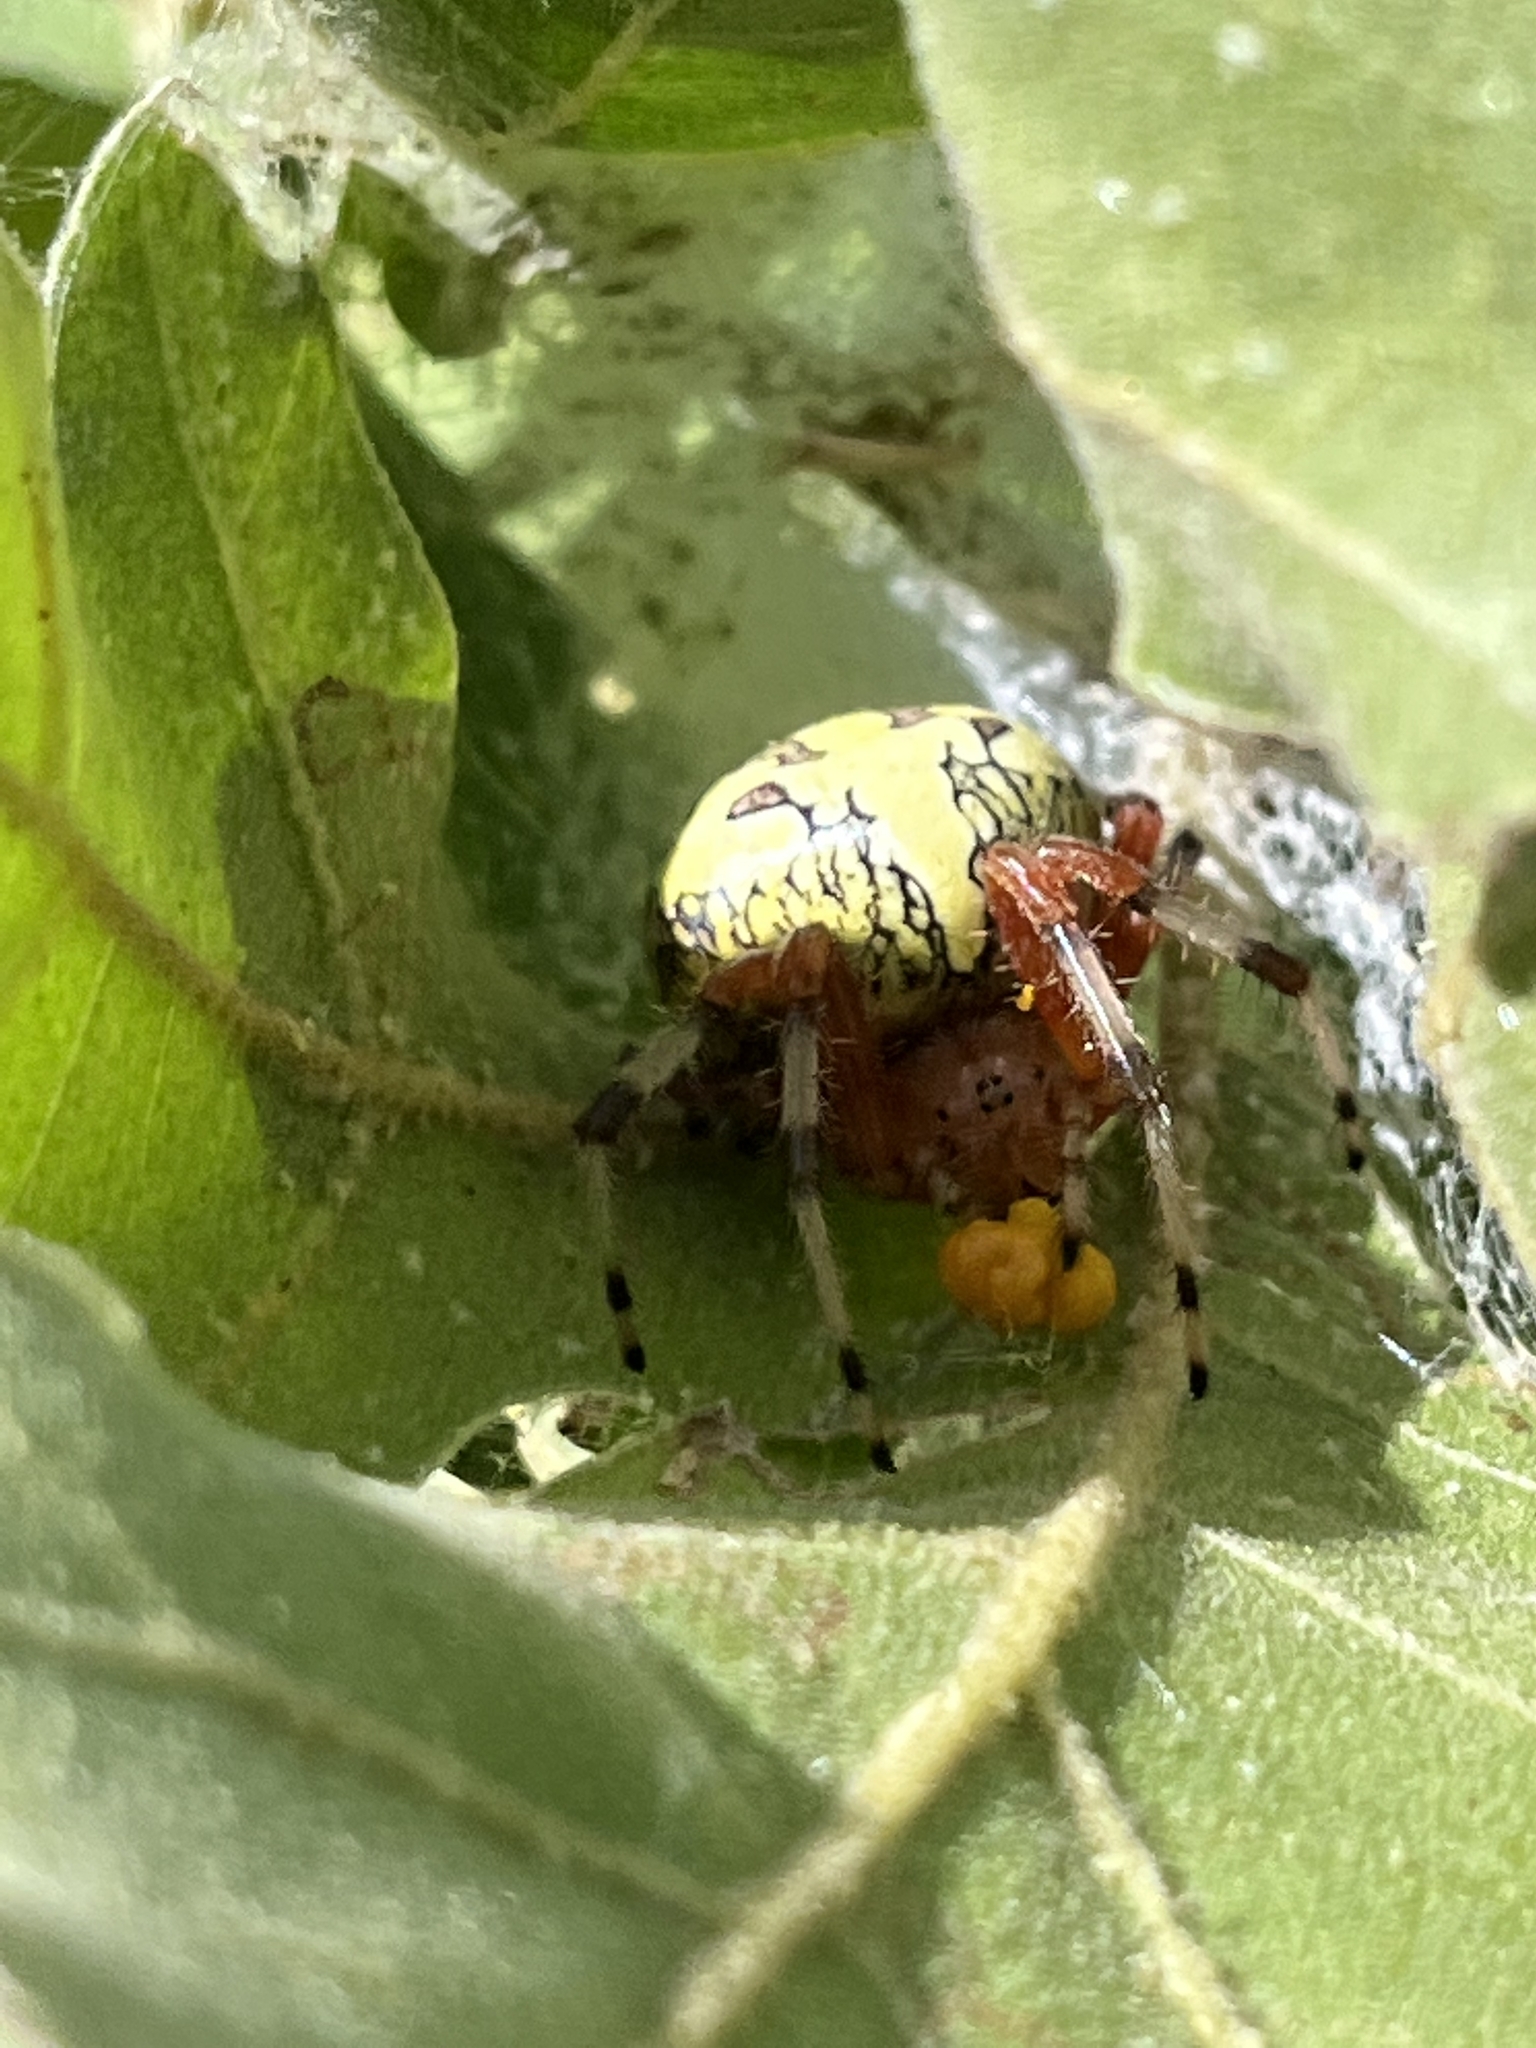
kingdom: Animalia
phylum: Arthropoda
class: Arachnida
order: Araneae
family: Araneidae
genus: Araneus
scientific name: Araneus marmoreus
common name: Marbled orbweaver
